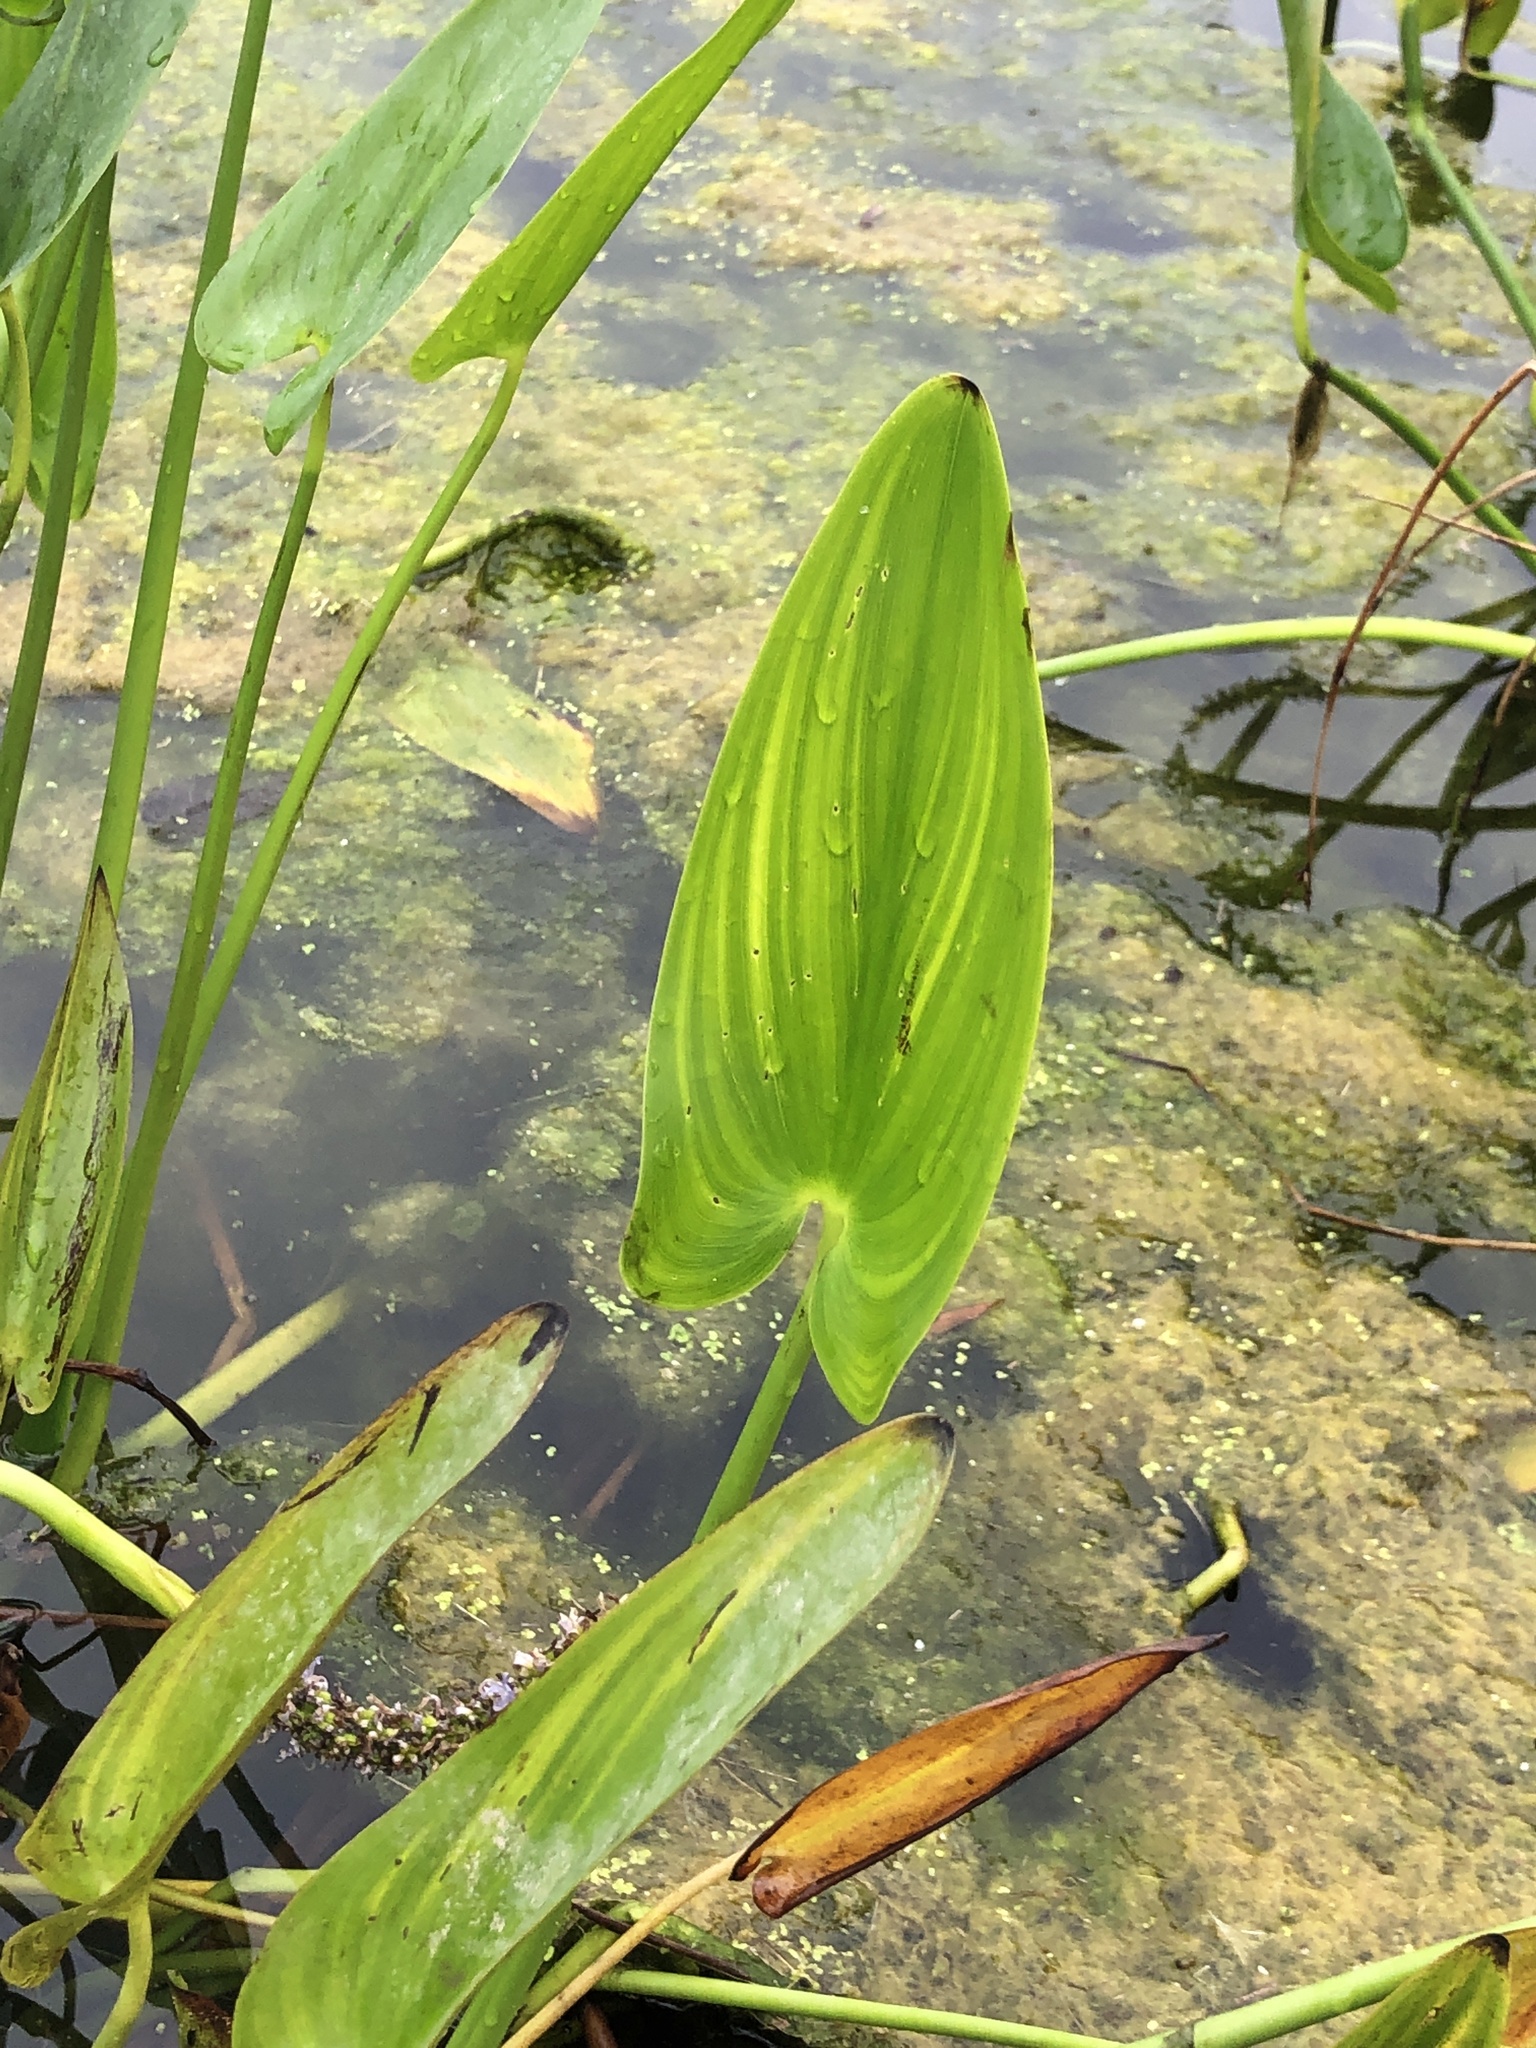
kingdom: Plantae
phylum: Tracheophyta
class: Liliopsida
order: Commelinales
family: Pontederiaceae
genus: Pontederia
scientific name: Pontederia cordata
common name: Pickerelweed
